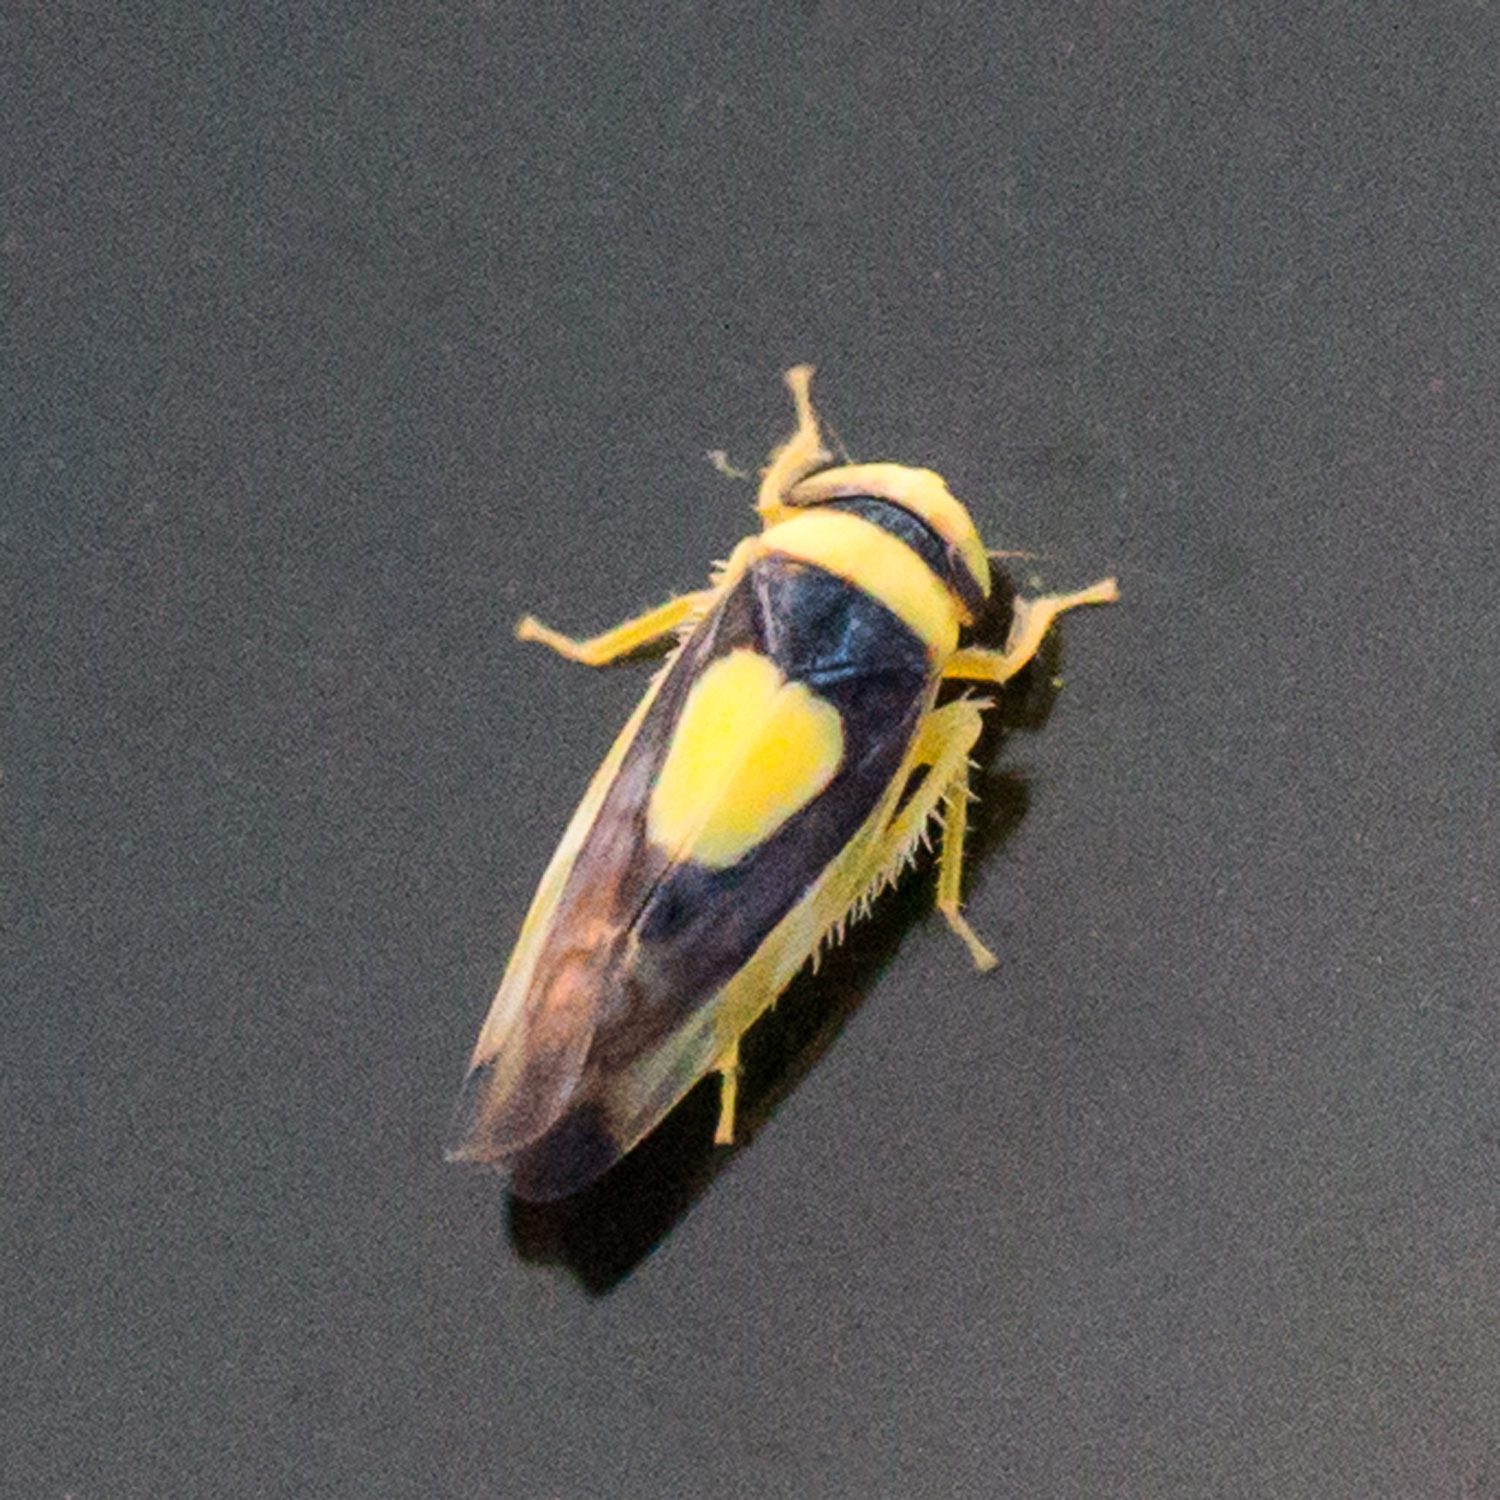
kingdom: Animalia
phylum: Arthropoda
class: Insecta
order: Hemiptera
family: Cicadellidae
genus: Colladonus
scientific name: Colladonus clitellarius
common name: The saddleback leafhopper
